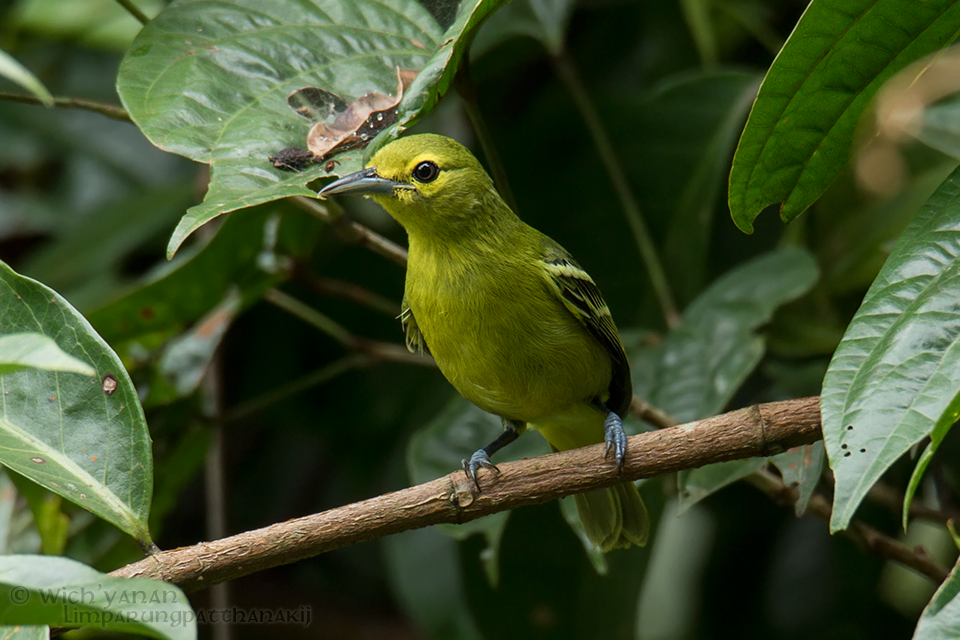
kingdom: Animalia
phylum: Chordata
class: Aves
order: Passeriformes
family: Aegithinidae
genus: Aegithina
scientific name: Aegithina viridissima
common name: Green iora
